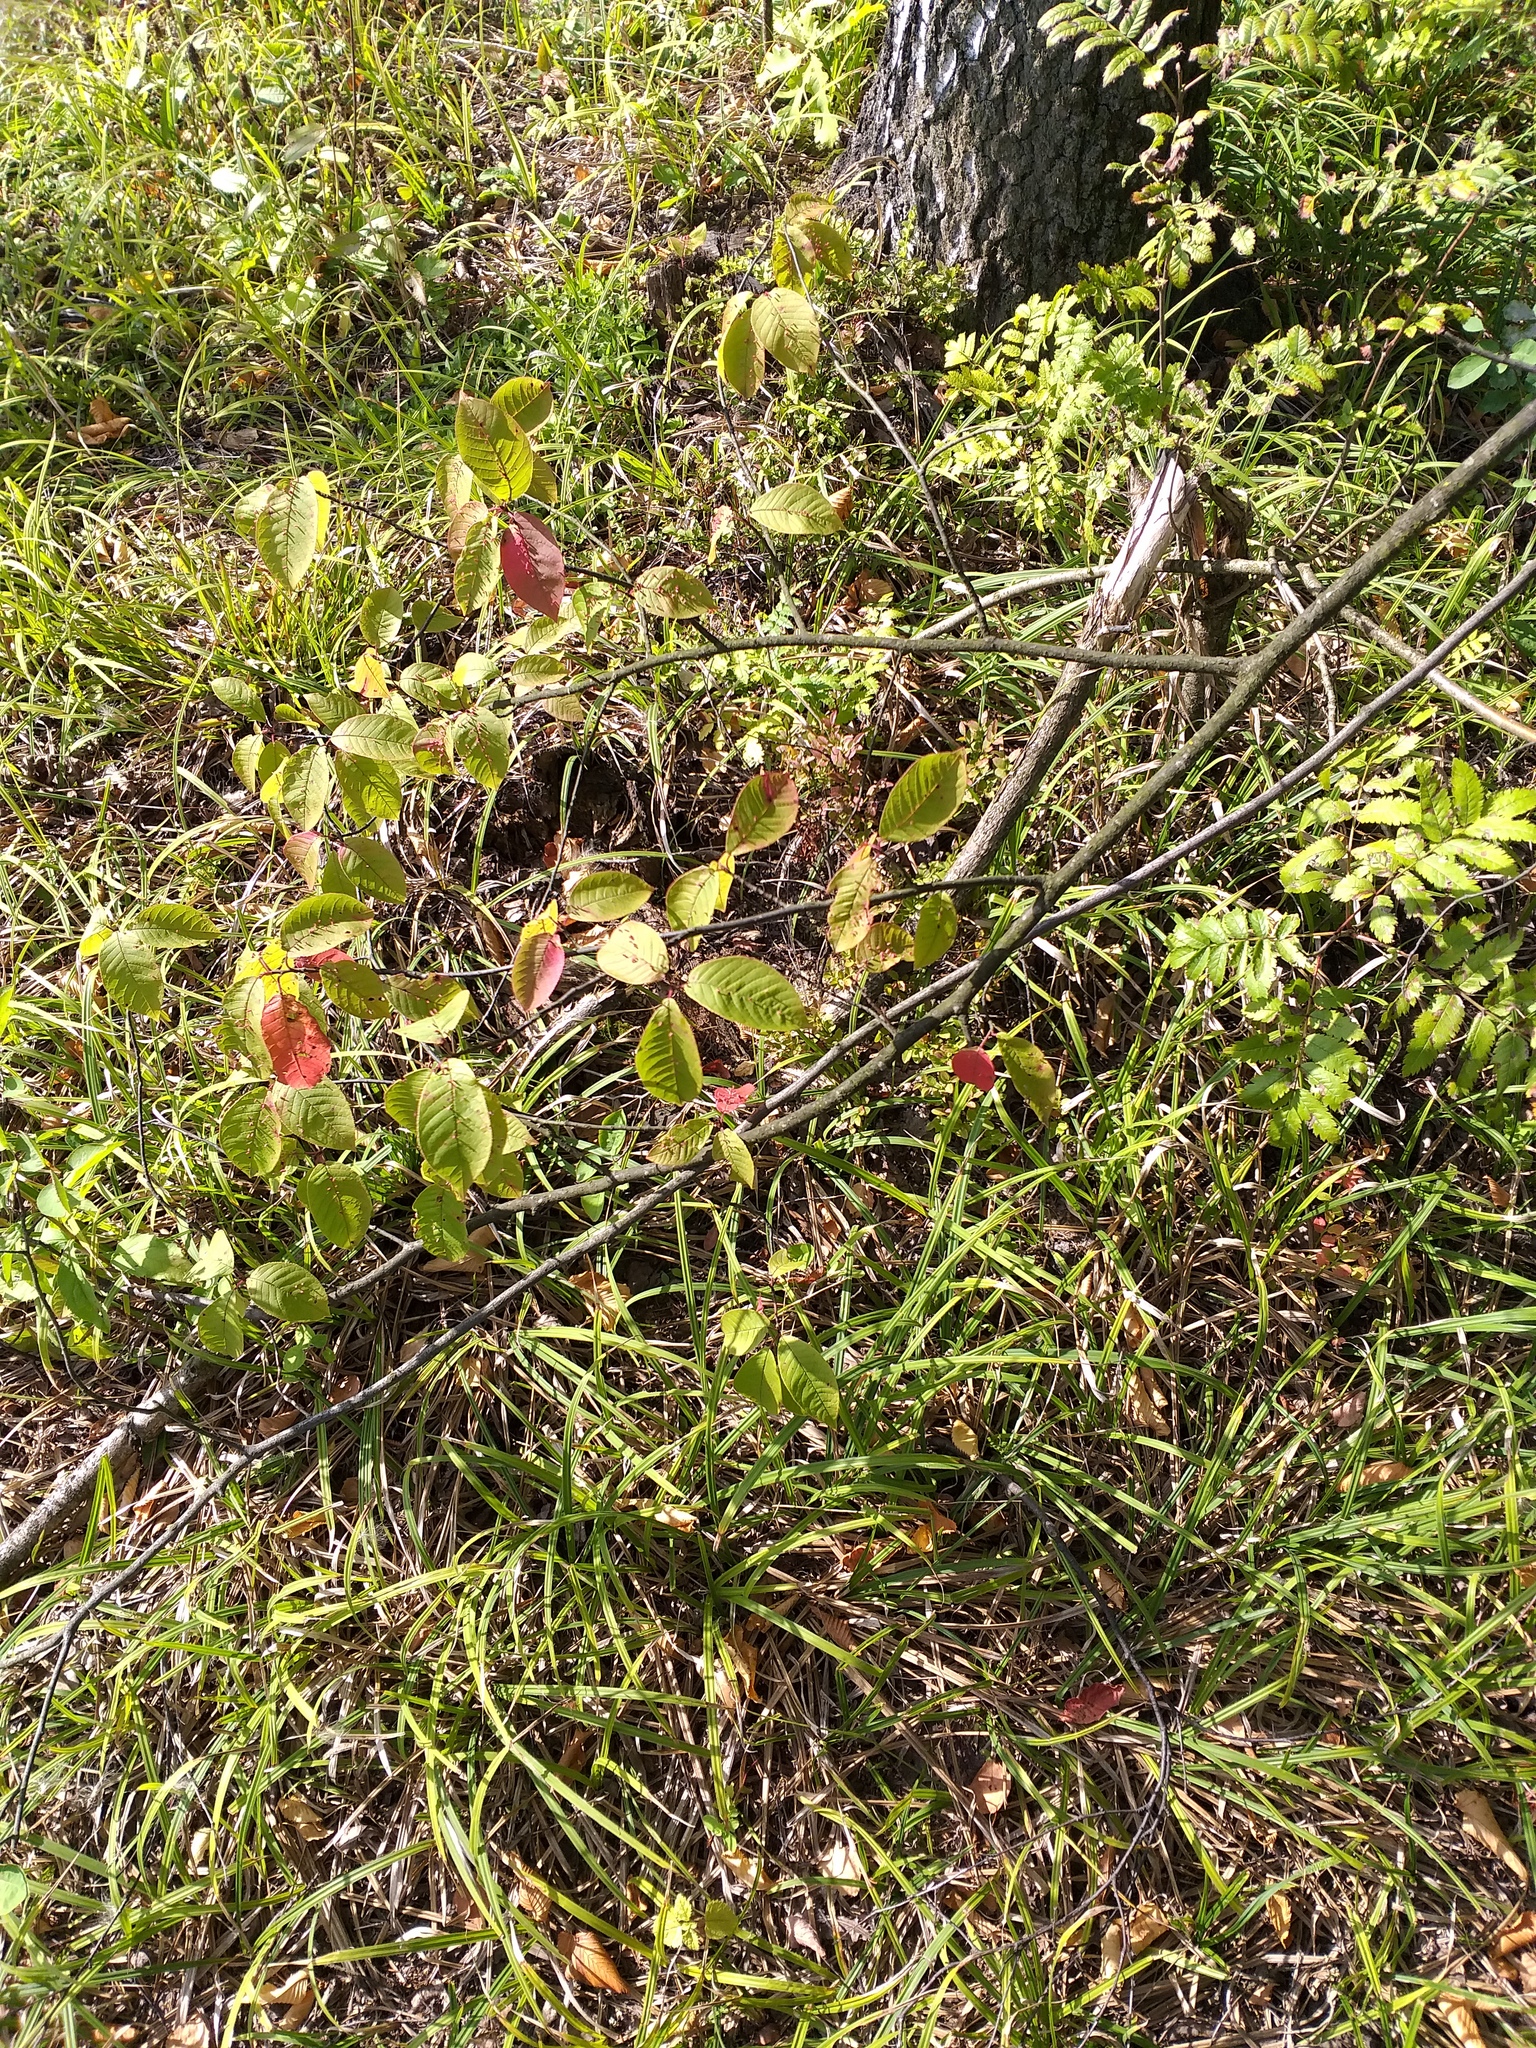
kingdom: Plantae
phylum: Tracheophyta
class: Magnoliopsida
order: Rosales
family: Rosaceae
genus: Prunus
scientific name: Prunus padus
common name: Bird cherry
